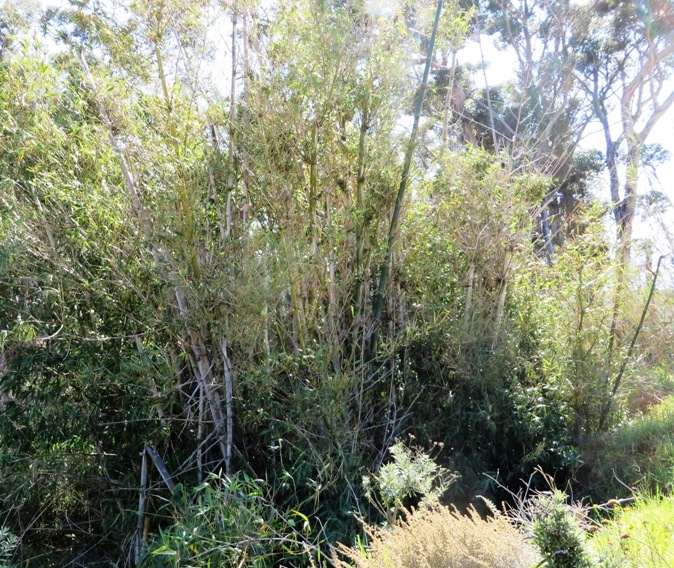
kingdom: Plantae
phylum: Tracheophyta
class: Liliopsida
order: Poales
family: Poaceae
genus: Bambusa
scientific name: Bambusa oldhamii
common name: Giant timber bamboo
